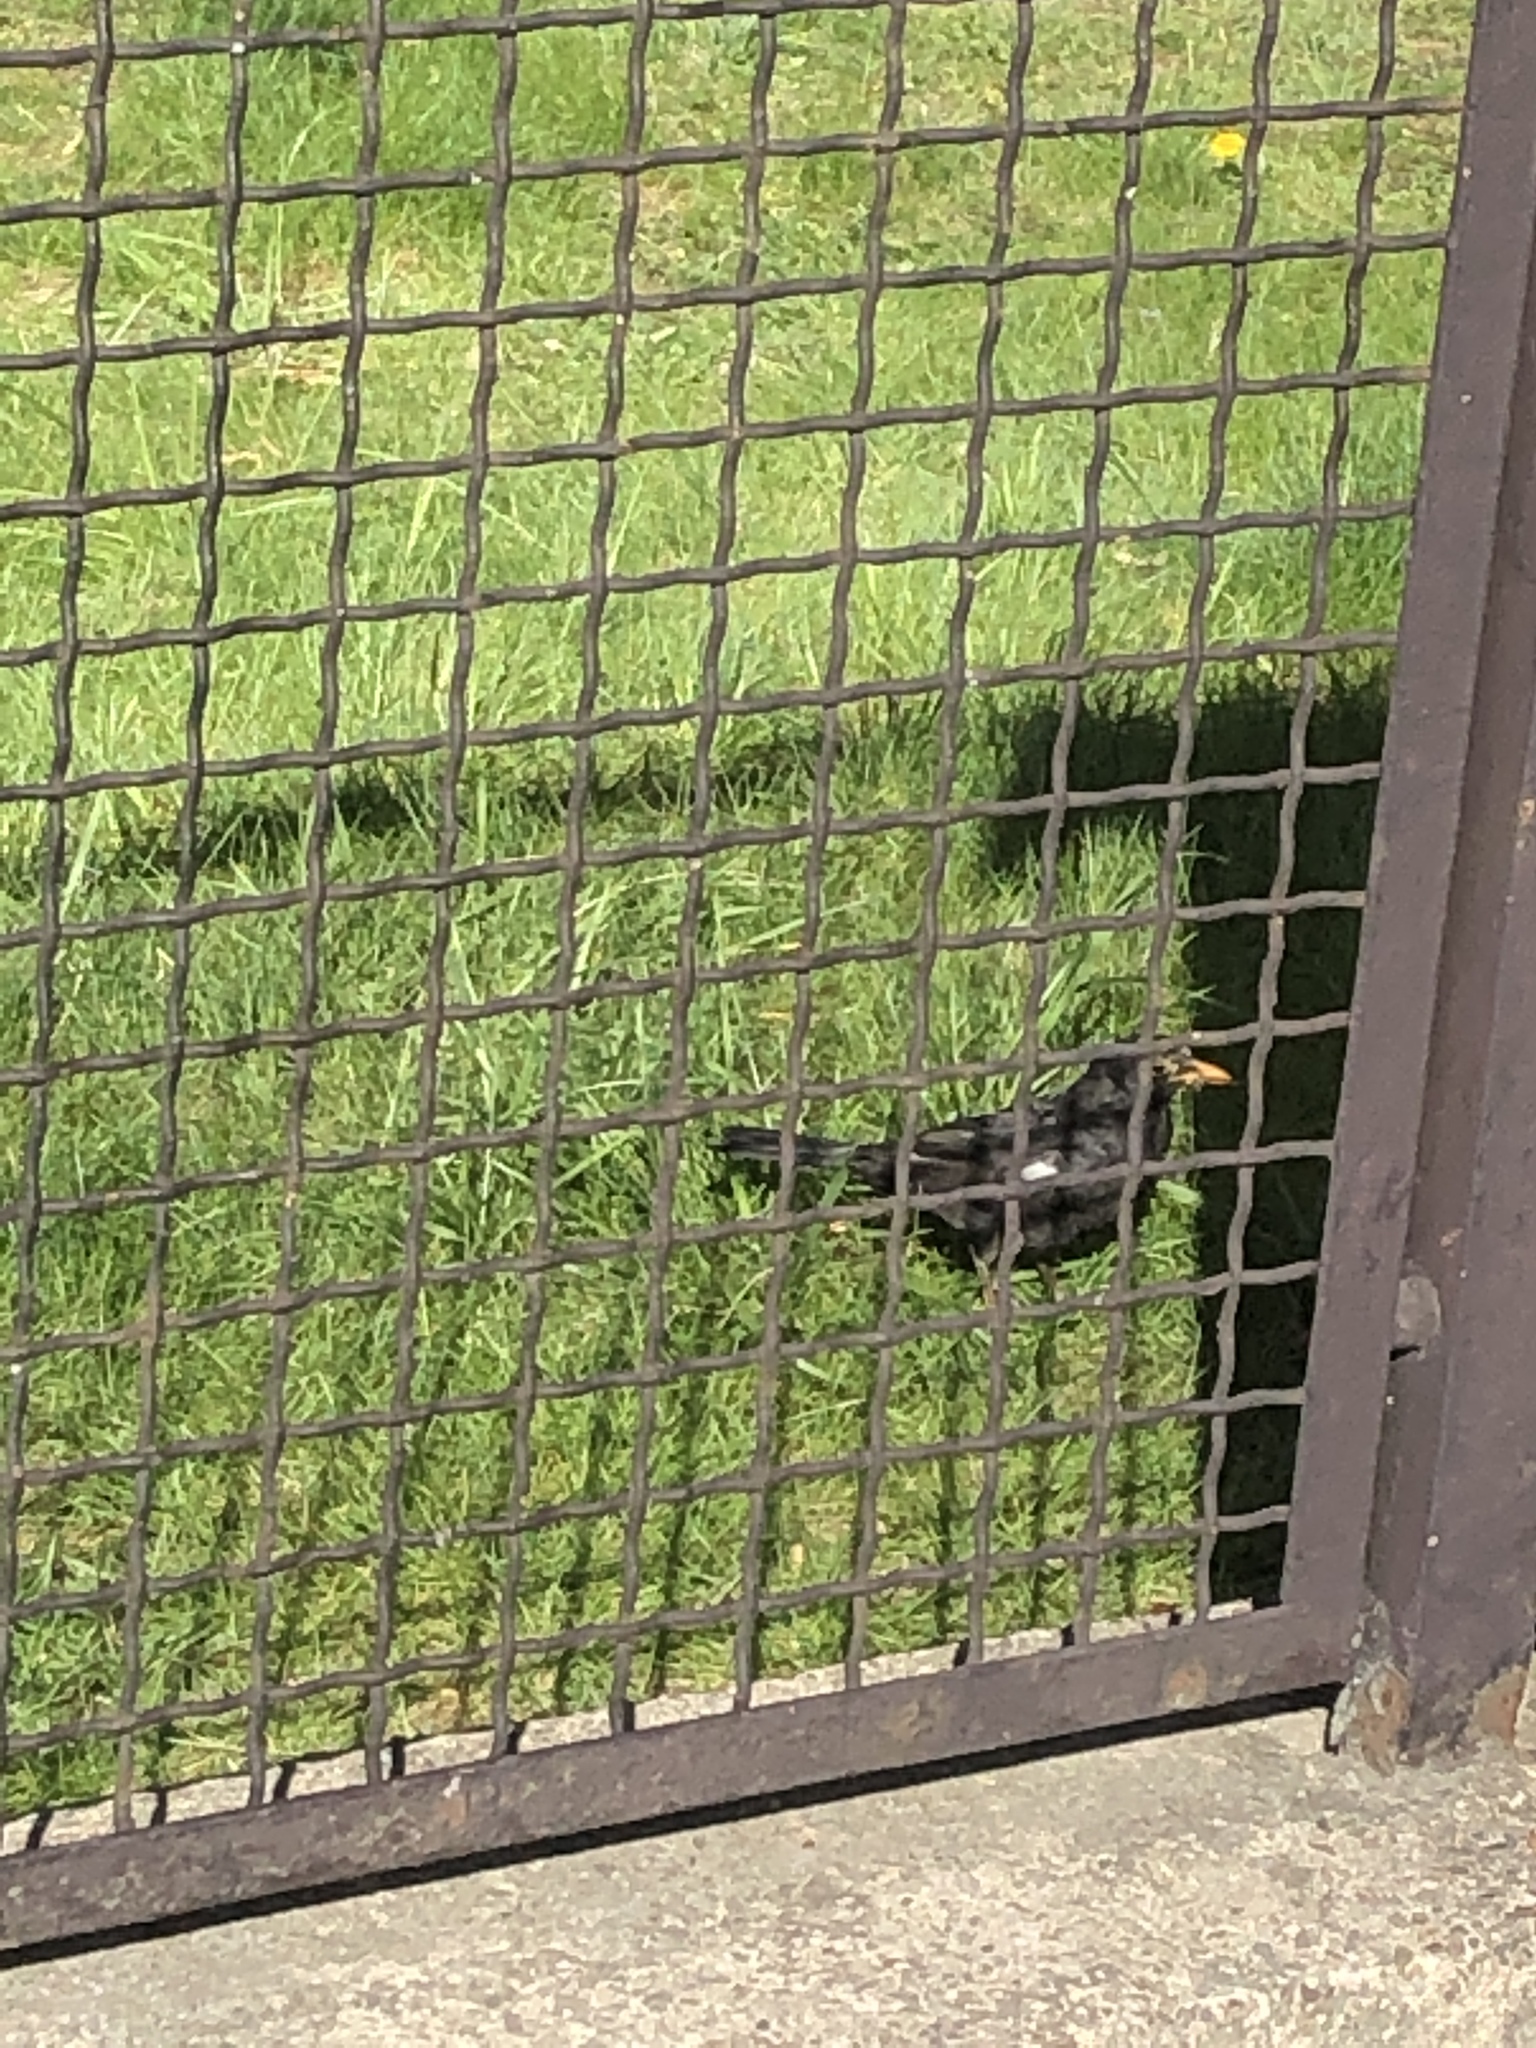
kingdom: Animalia
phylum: Chordata
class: Aves
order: Passeriformes
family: Turdidae
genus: Turdus
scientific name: Turdus merula
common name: Common blackbird
